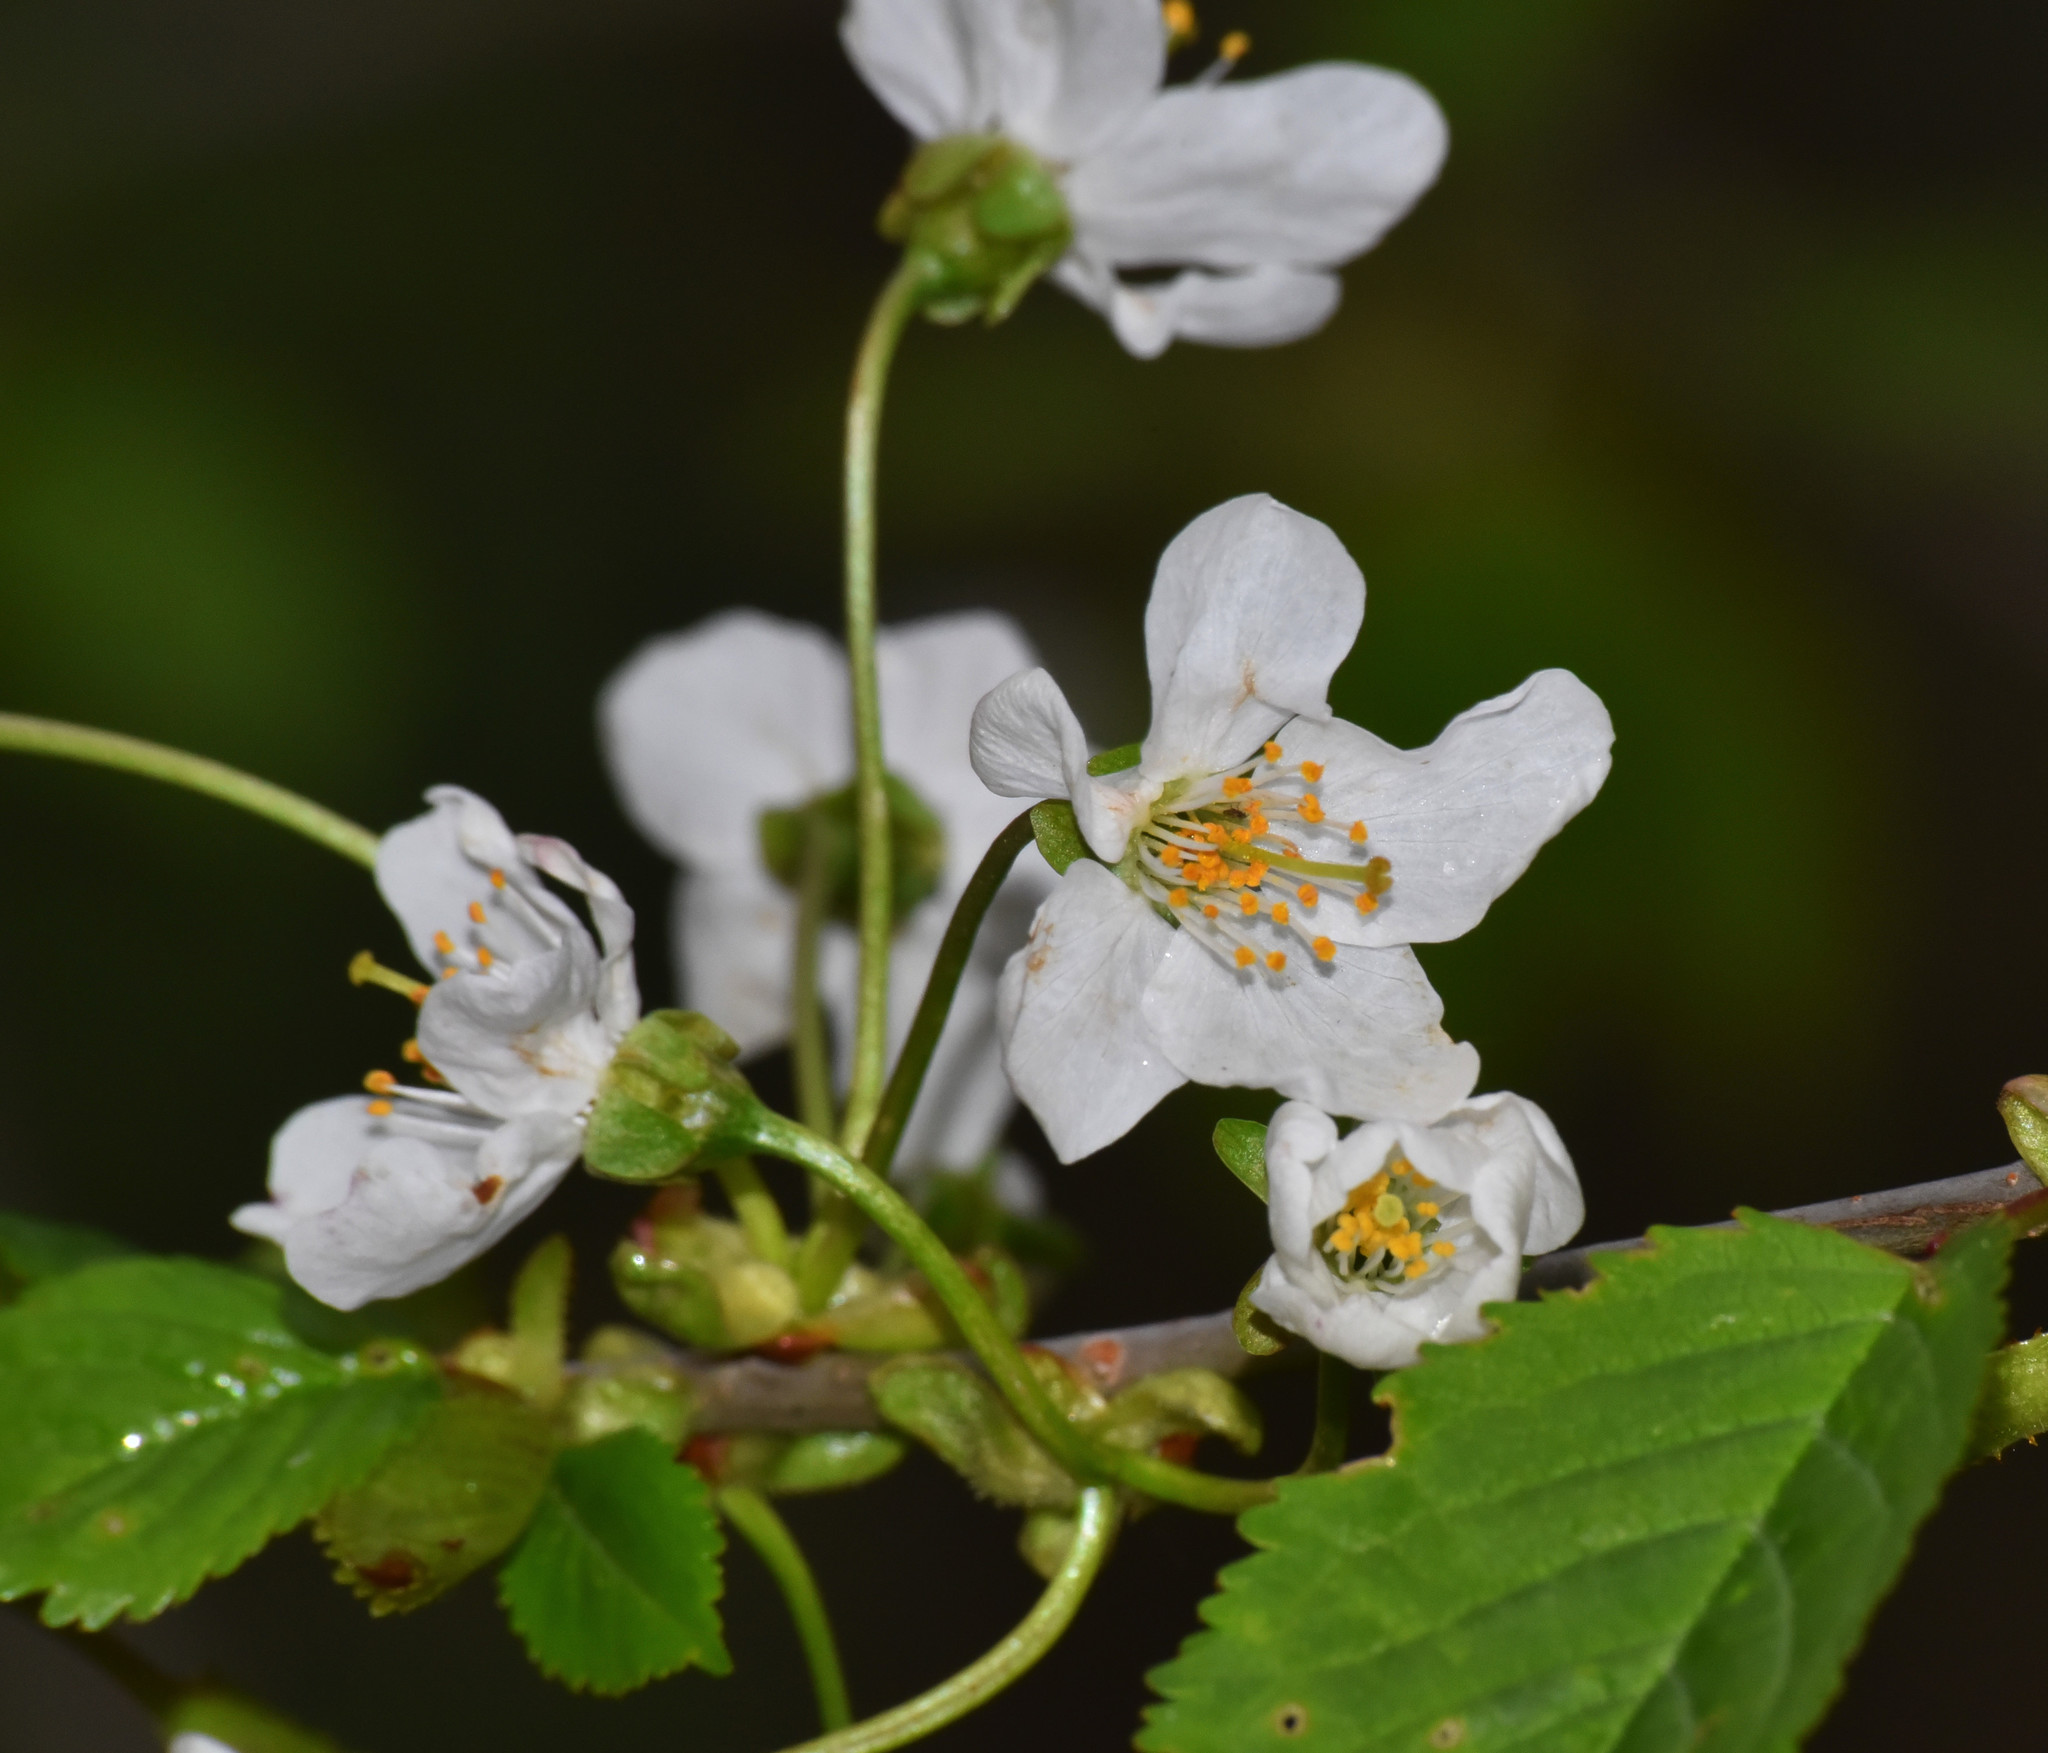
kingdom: Plantae
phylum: Tracheophyta
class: Magnoliopsida
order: Rosales
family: Rosaceae
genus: Prunus
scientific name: Prunus avium
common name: Sweet cherry
